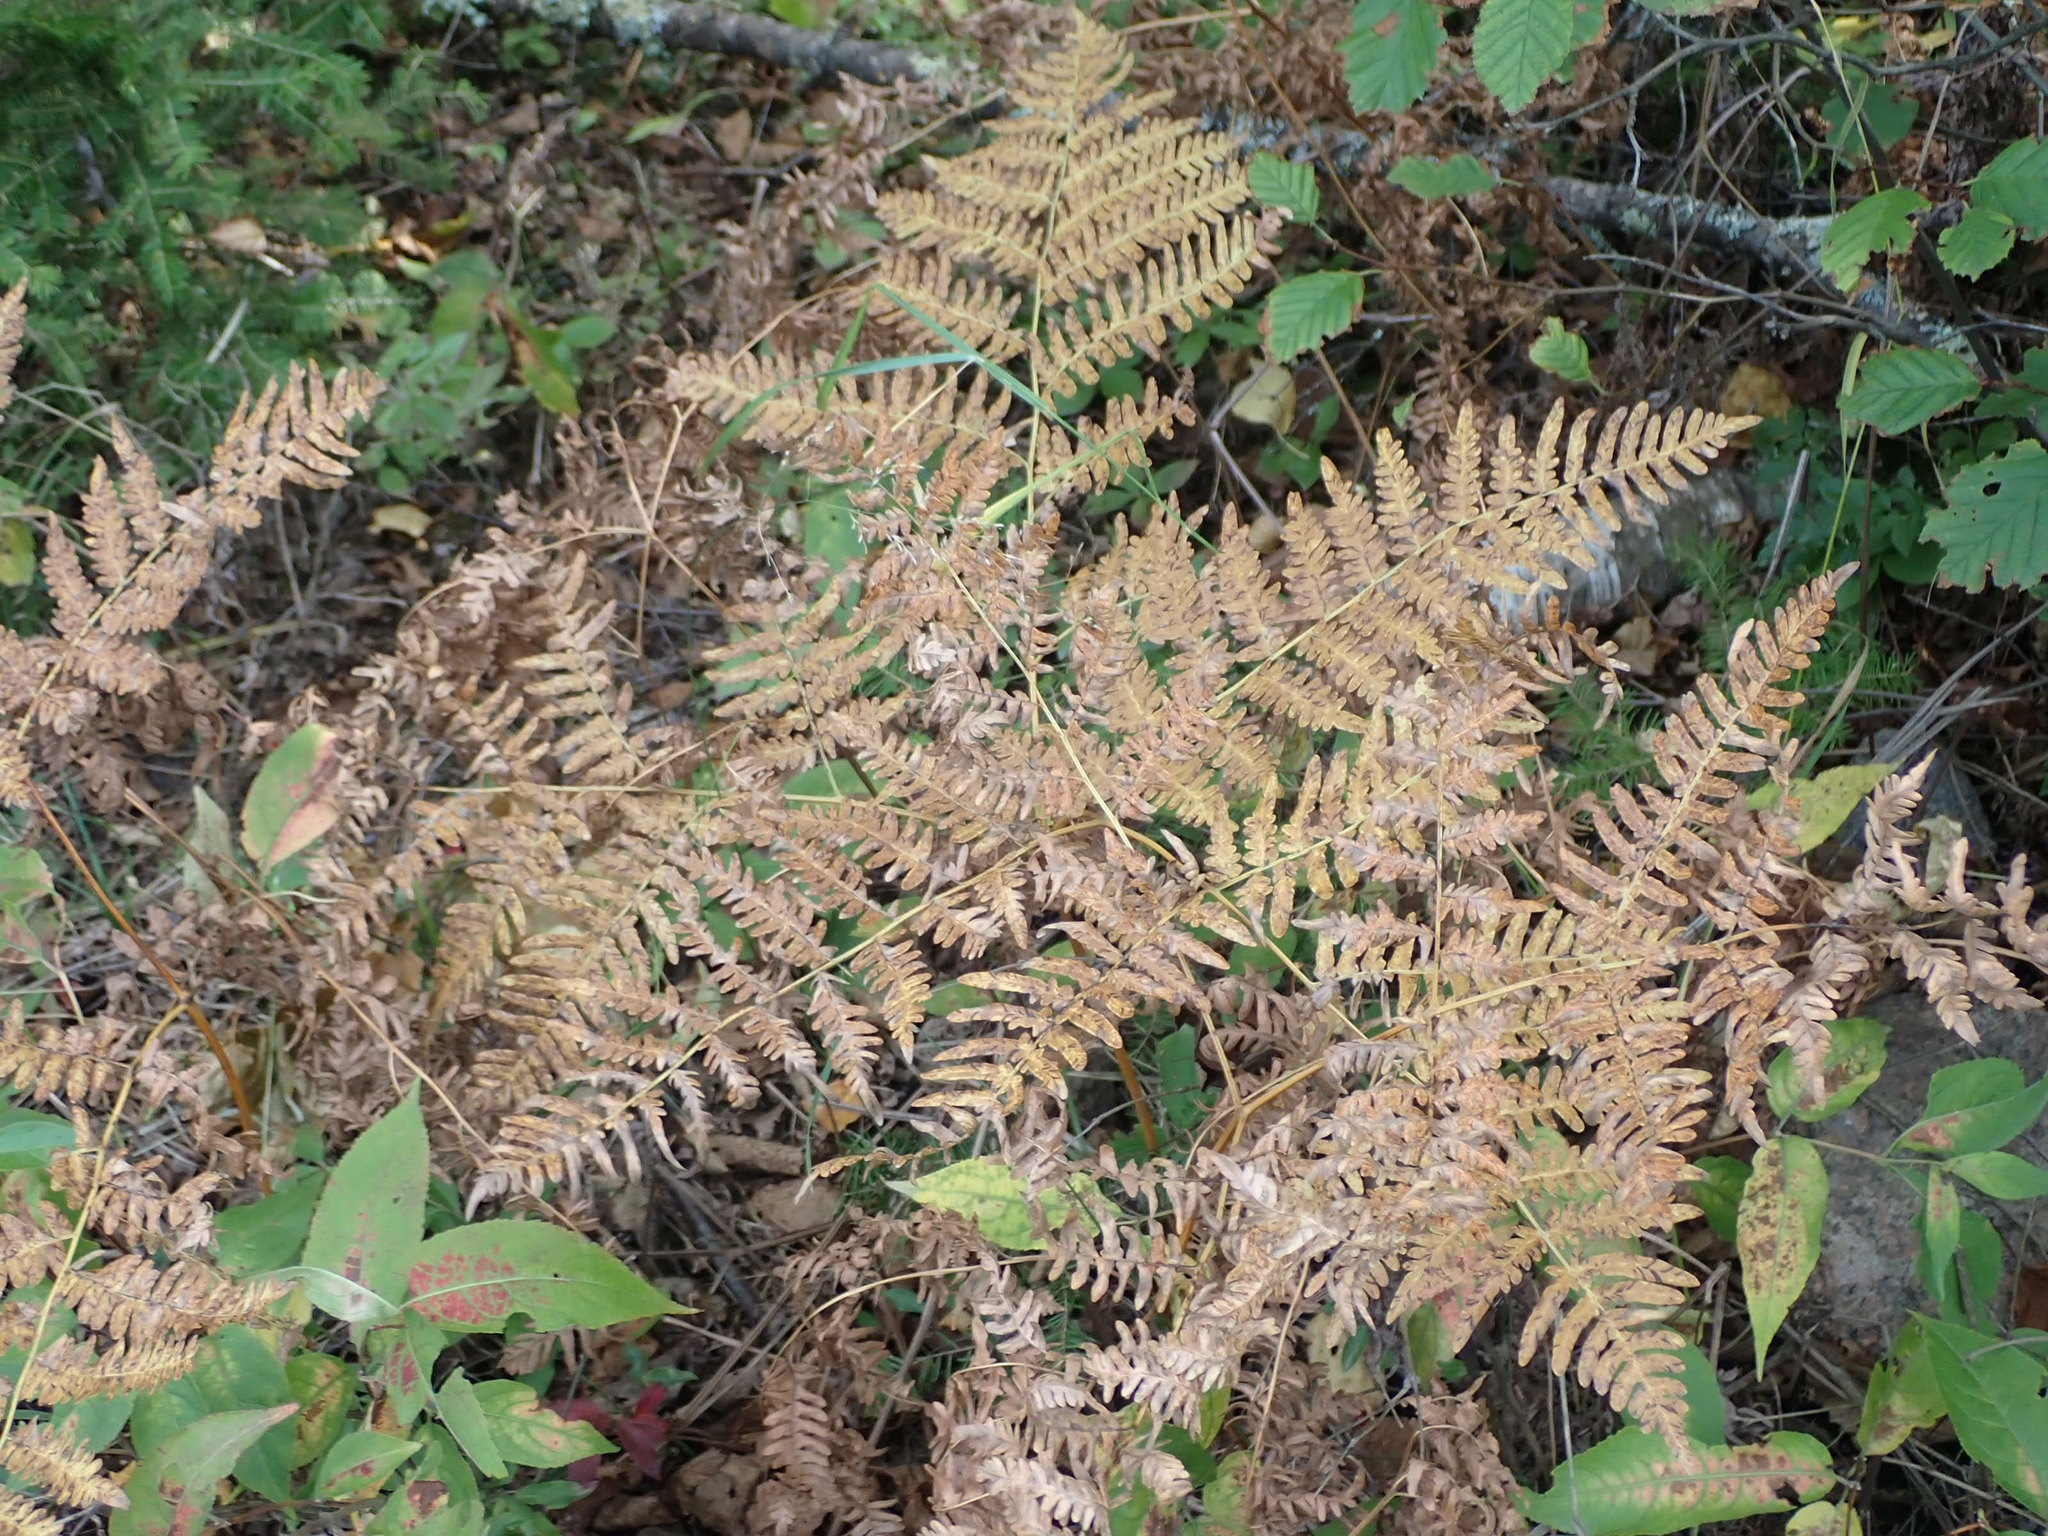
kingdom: Plantae
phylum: Tracheophyta
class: Polypodiopsida
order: Polypodiales
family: Dennstaedtiaceae
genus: Pteridium
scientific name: Pteridium aquilinum
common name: Bracken
